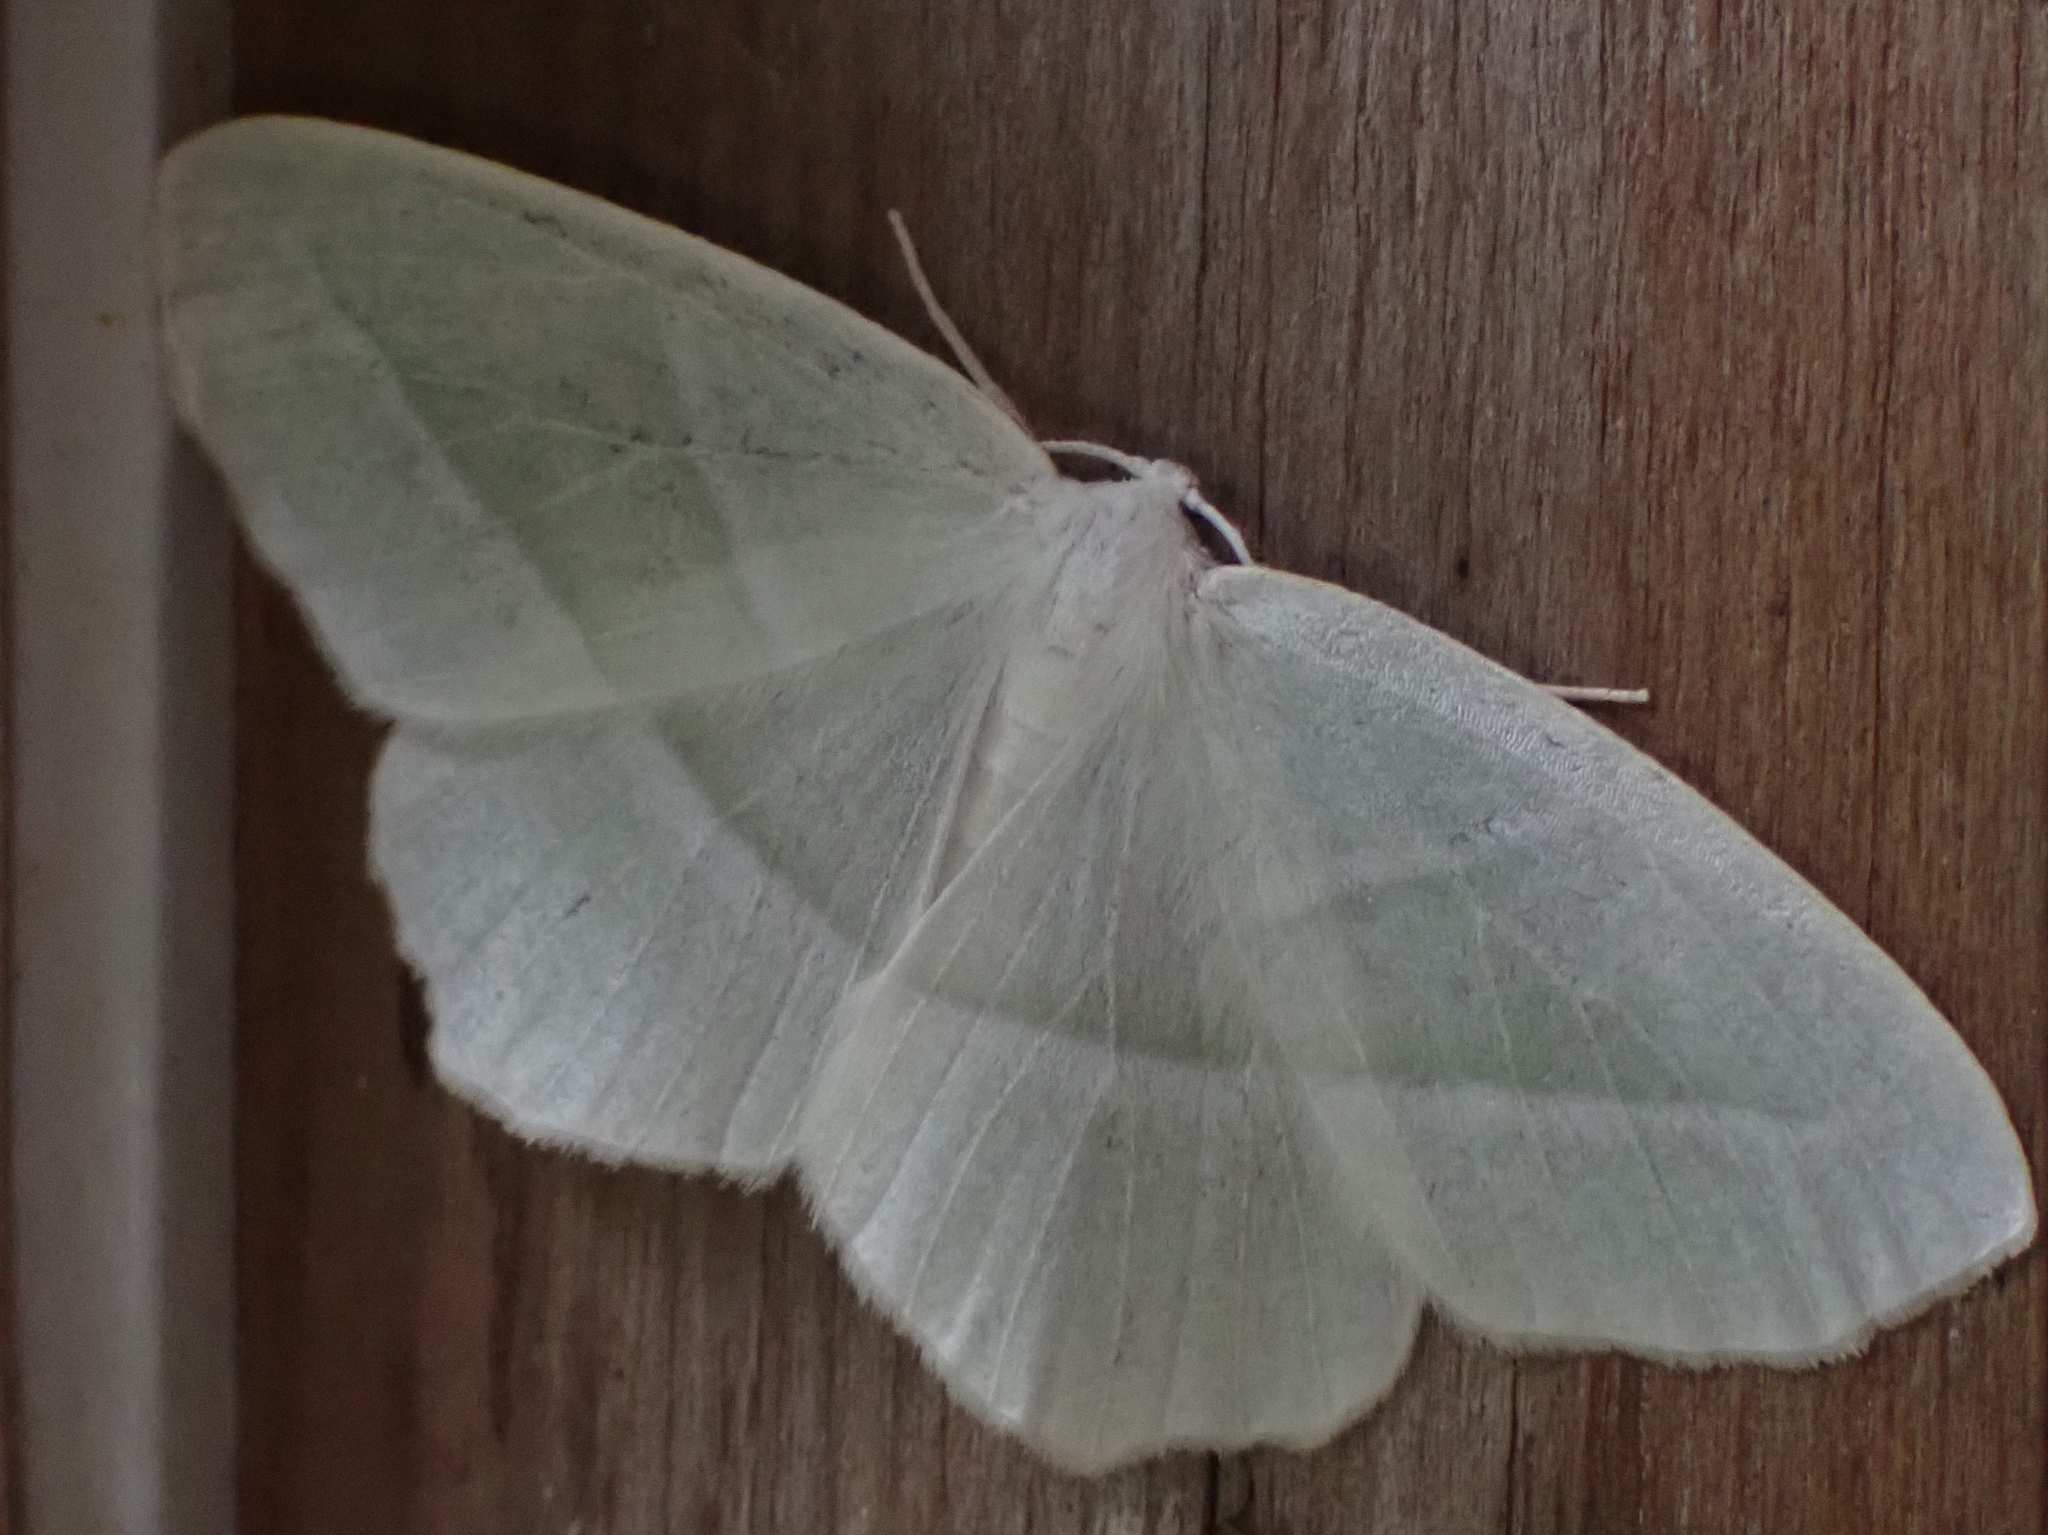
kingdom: Animalia
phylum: Arthropoda
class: Insecta
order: Lepidoptera
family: Geometridae
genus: Campaea
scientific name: Campaea perlata
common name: Fringed looper
